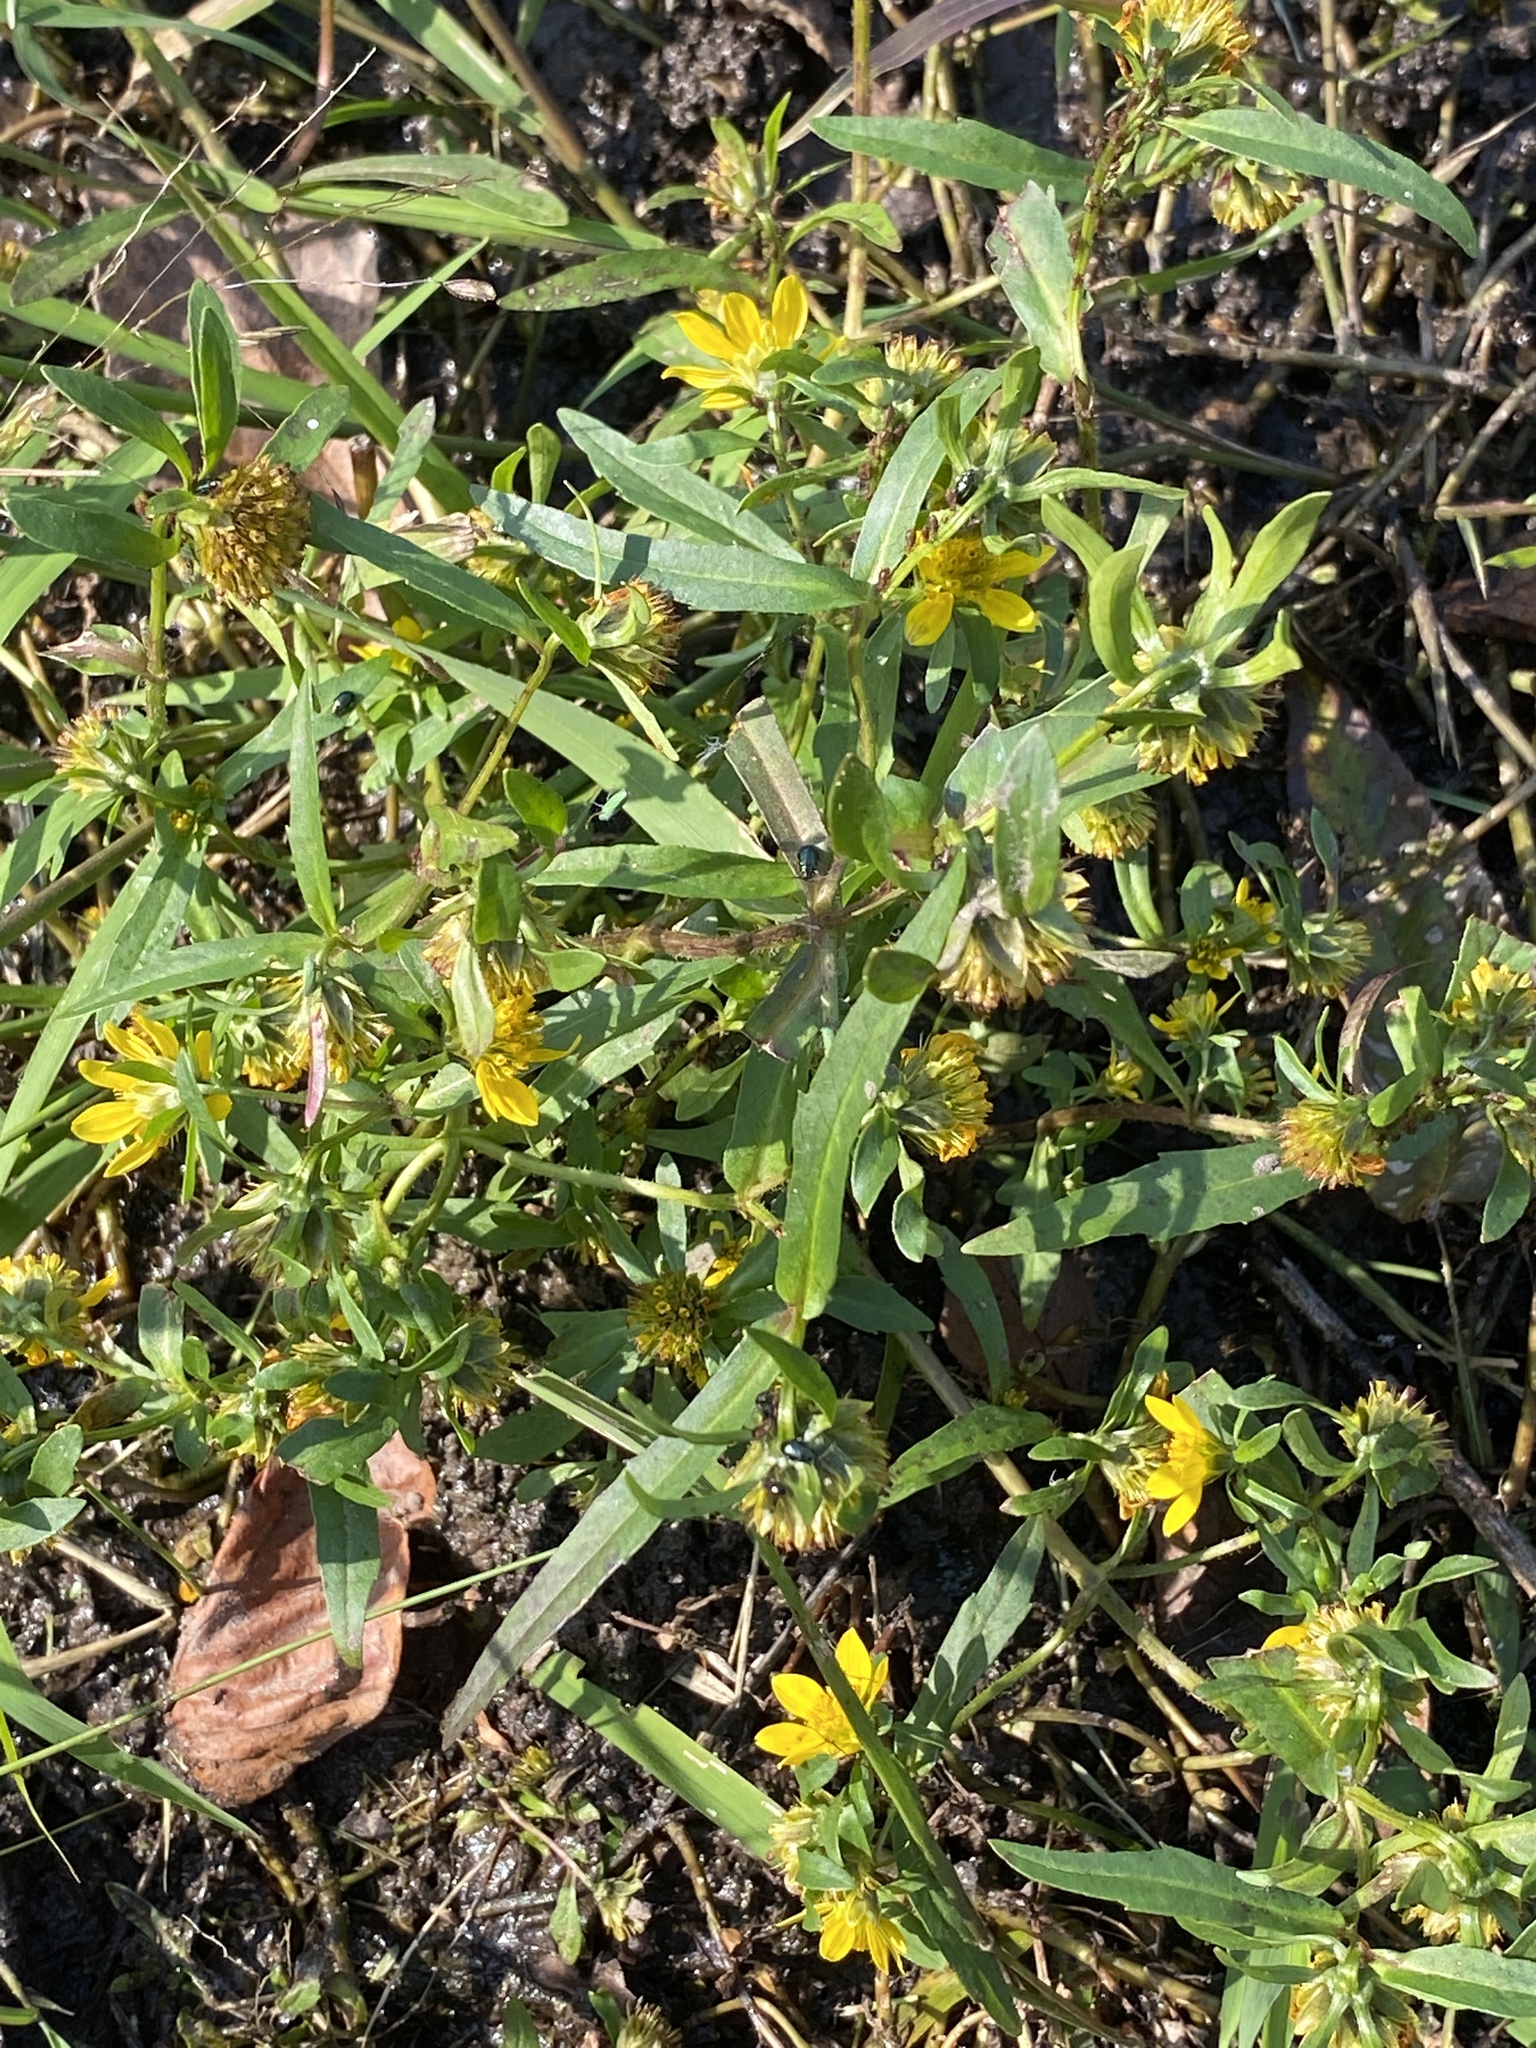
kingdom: Plantae
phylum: Tracheophyta
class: Magnoliopsida
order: Asterales
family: Asteraceae
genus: Bidens
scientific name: Bidens cernua
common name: Nodding bur-marigold
